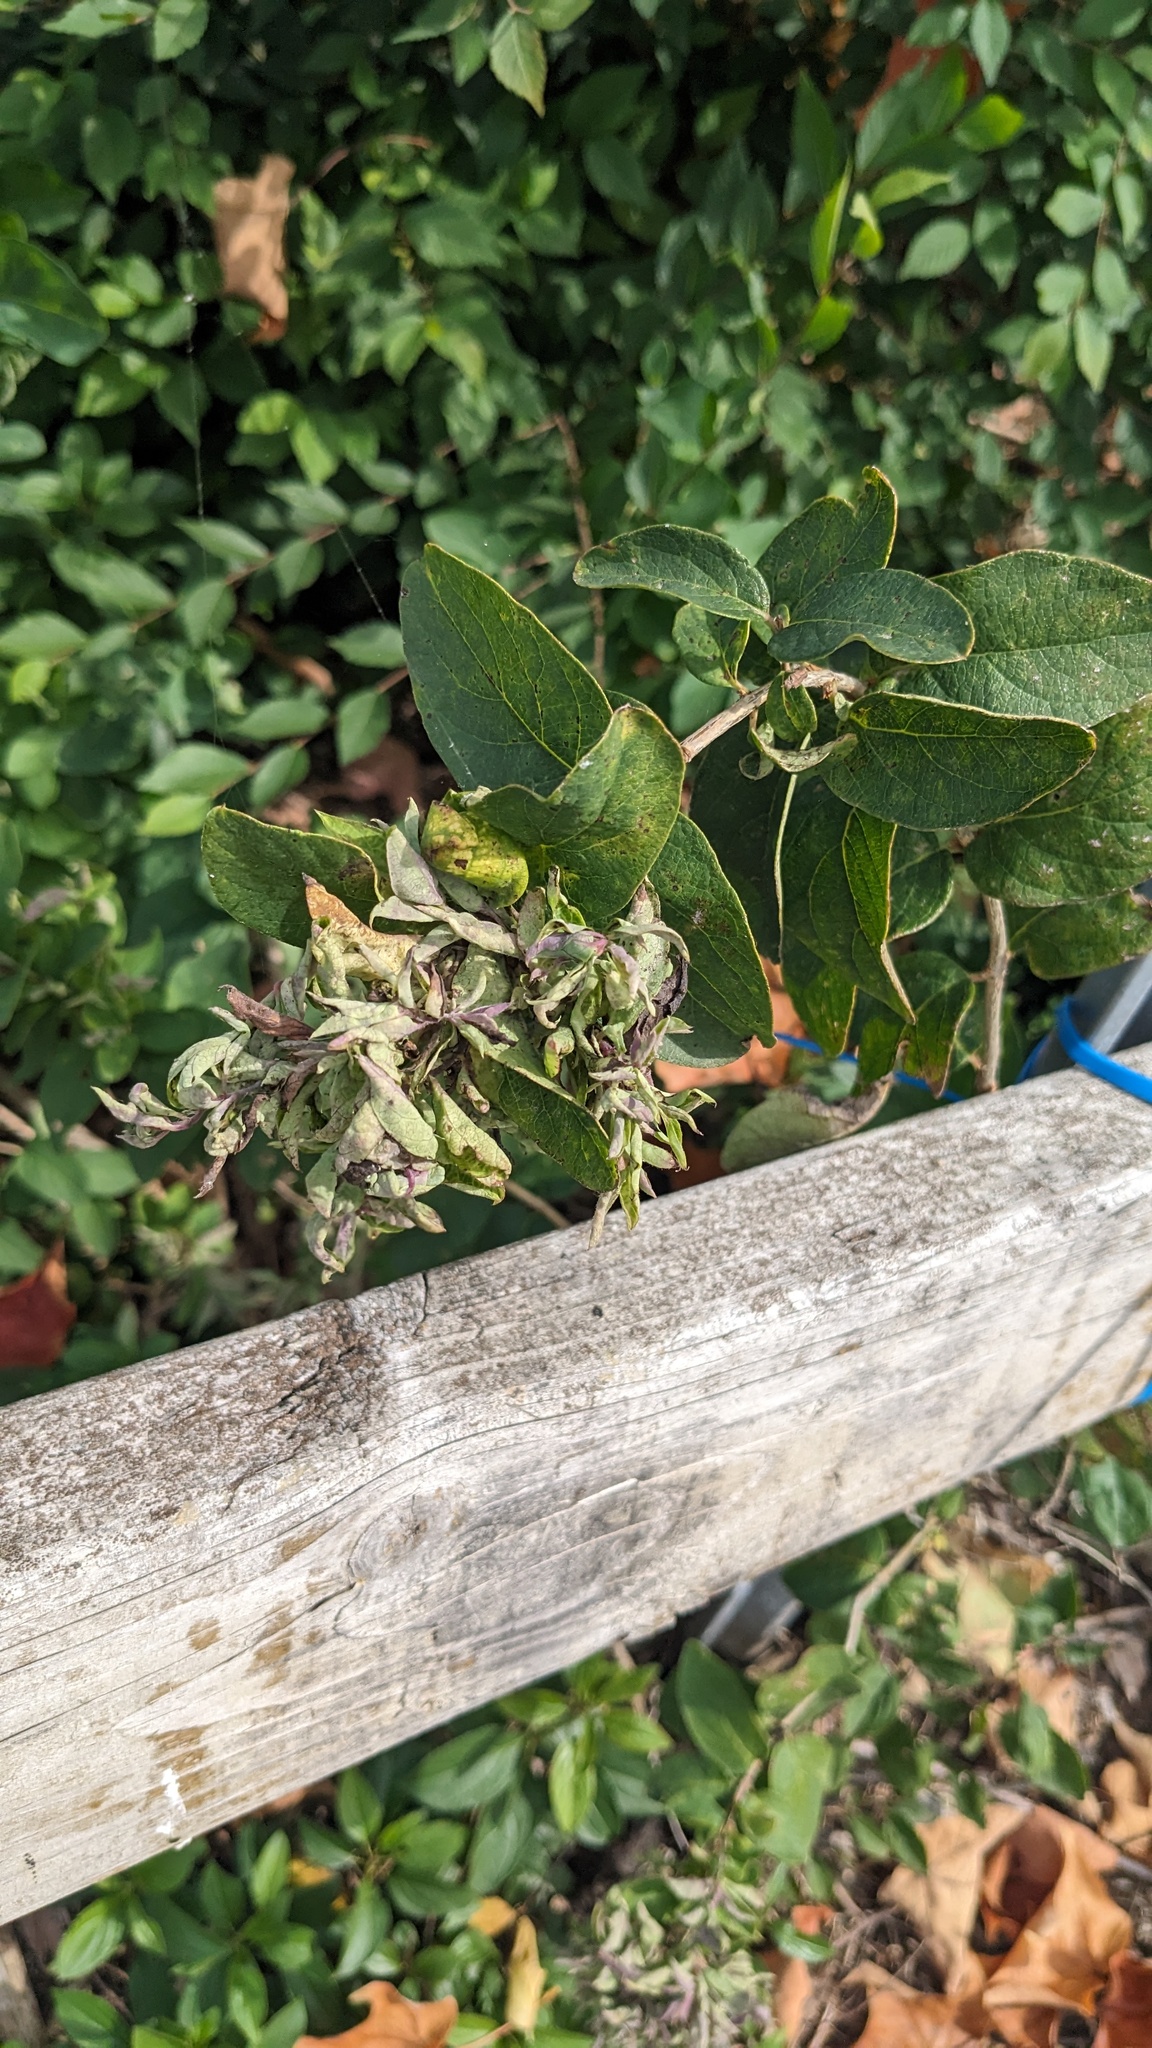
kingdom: Animalia
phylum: Arthropoda
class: Insecta
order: Hemiptera
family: Aphididae
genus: Hyadaphis
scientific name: Hyadaphis tataricae
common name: Honeysuckle witches' broom aphid
